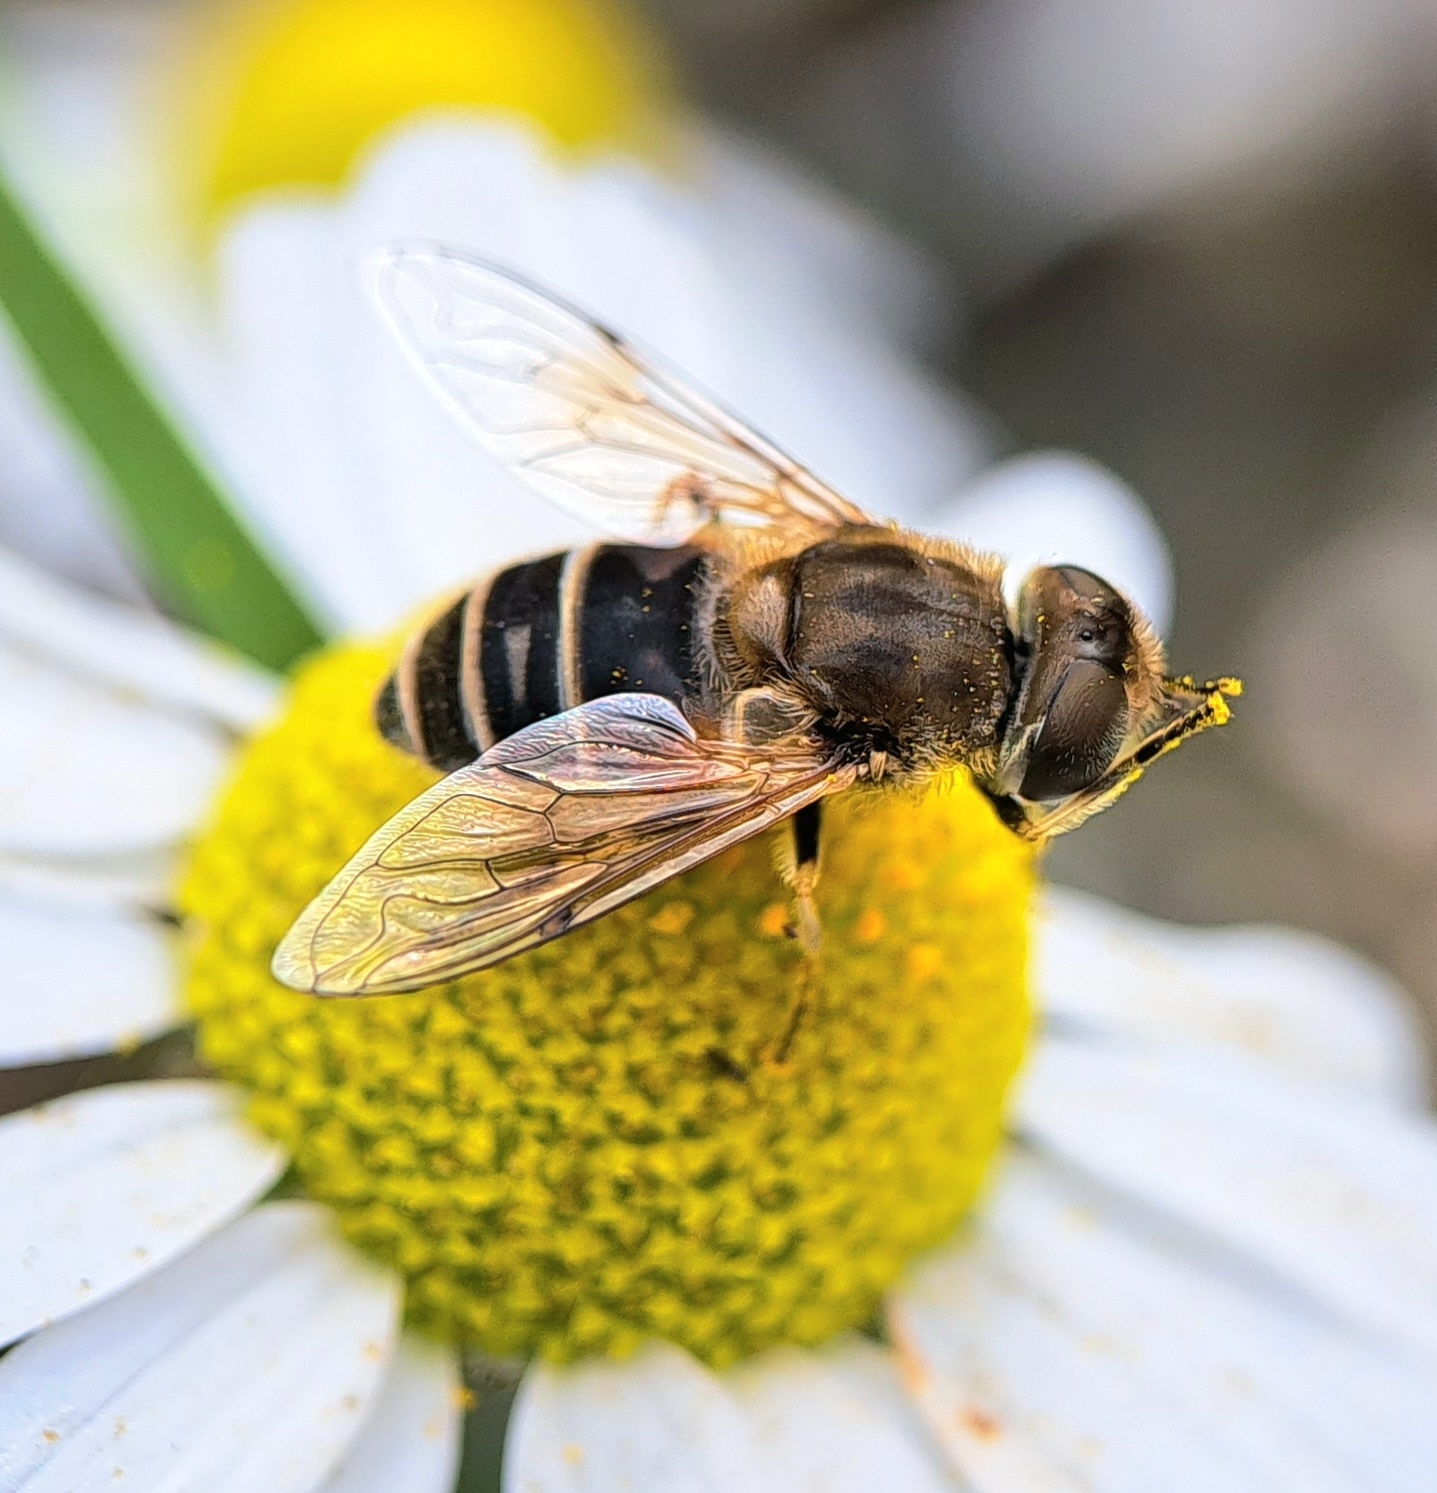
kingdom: Animalia
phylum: Arthropoda
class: Insecta
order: Diptera
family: Syrphidae
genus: Eristalis
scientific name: Eristalis arbustorum
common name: Hover fly
